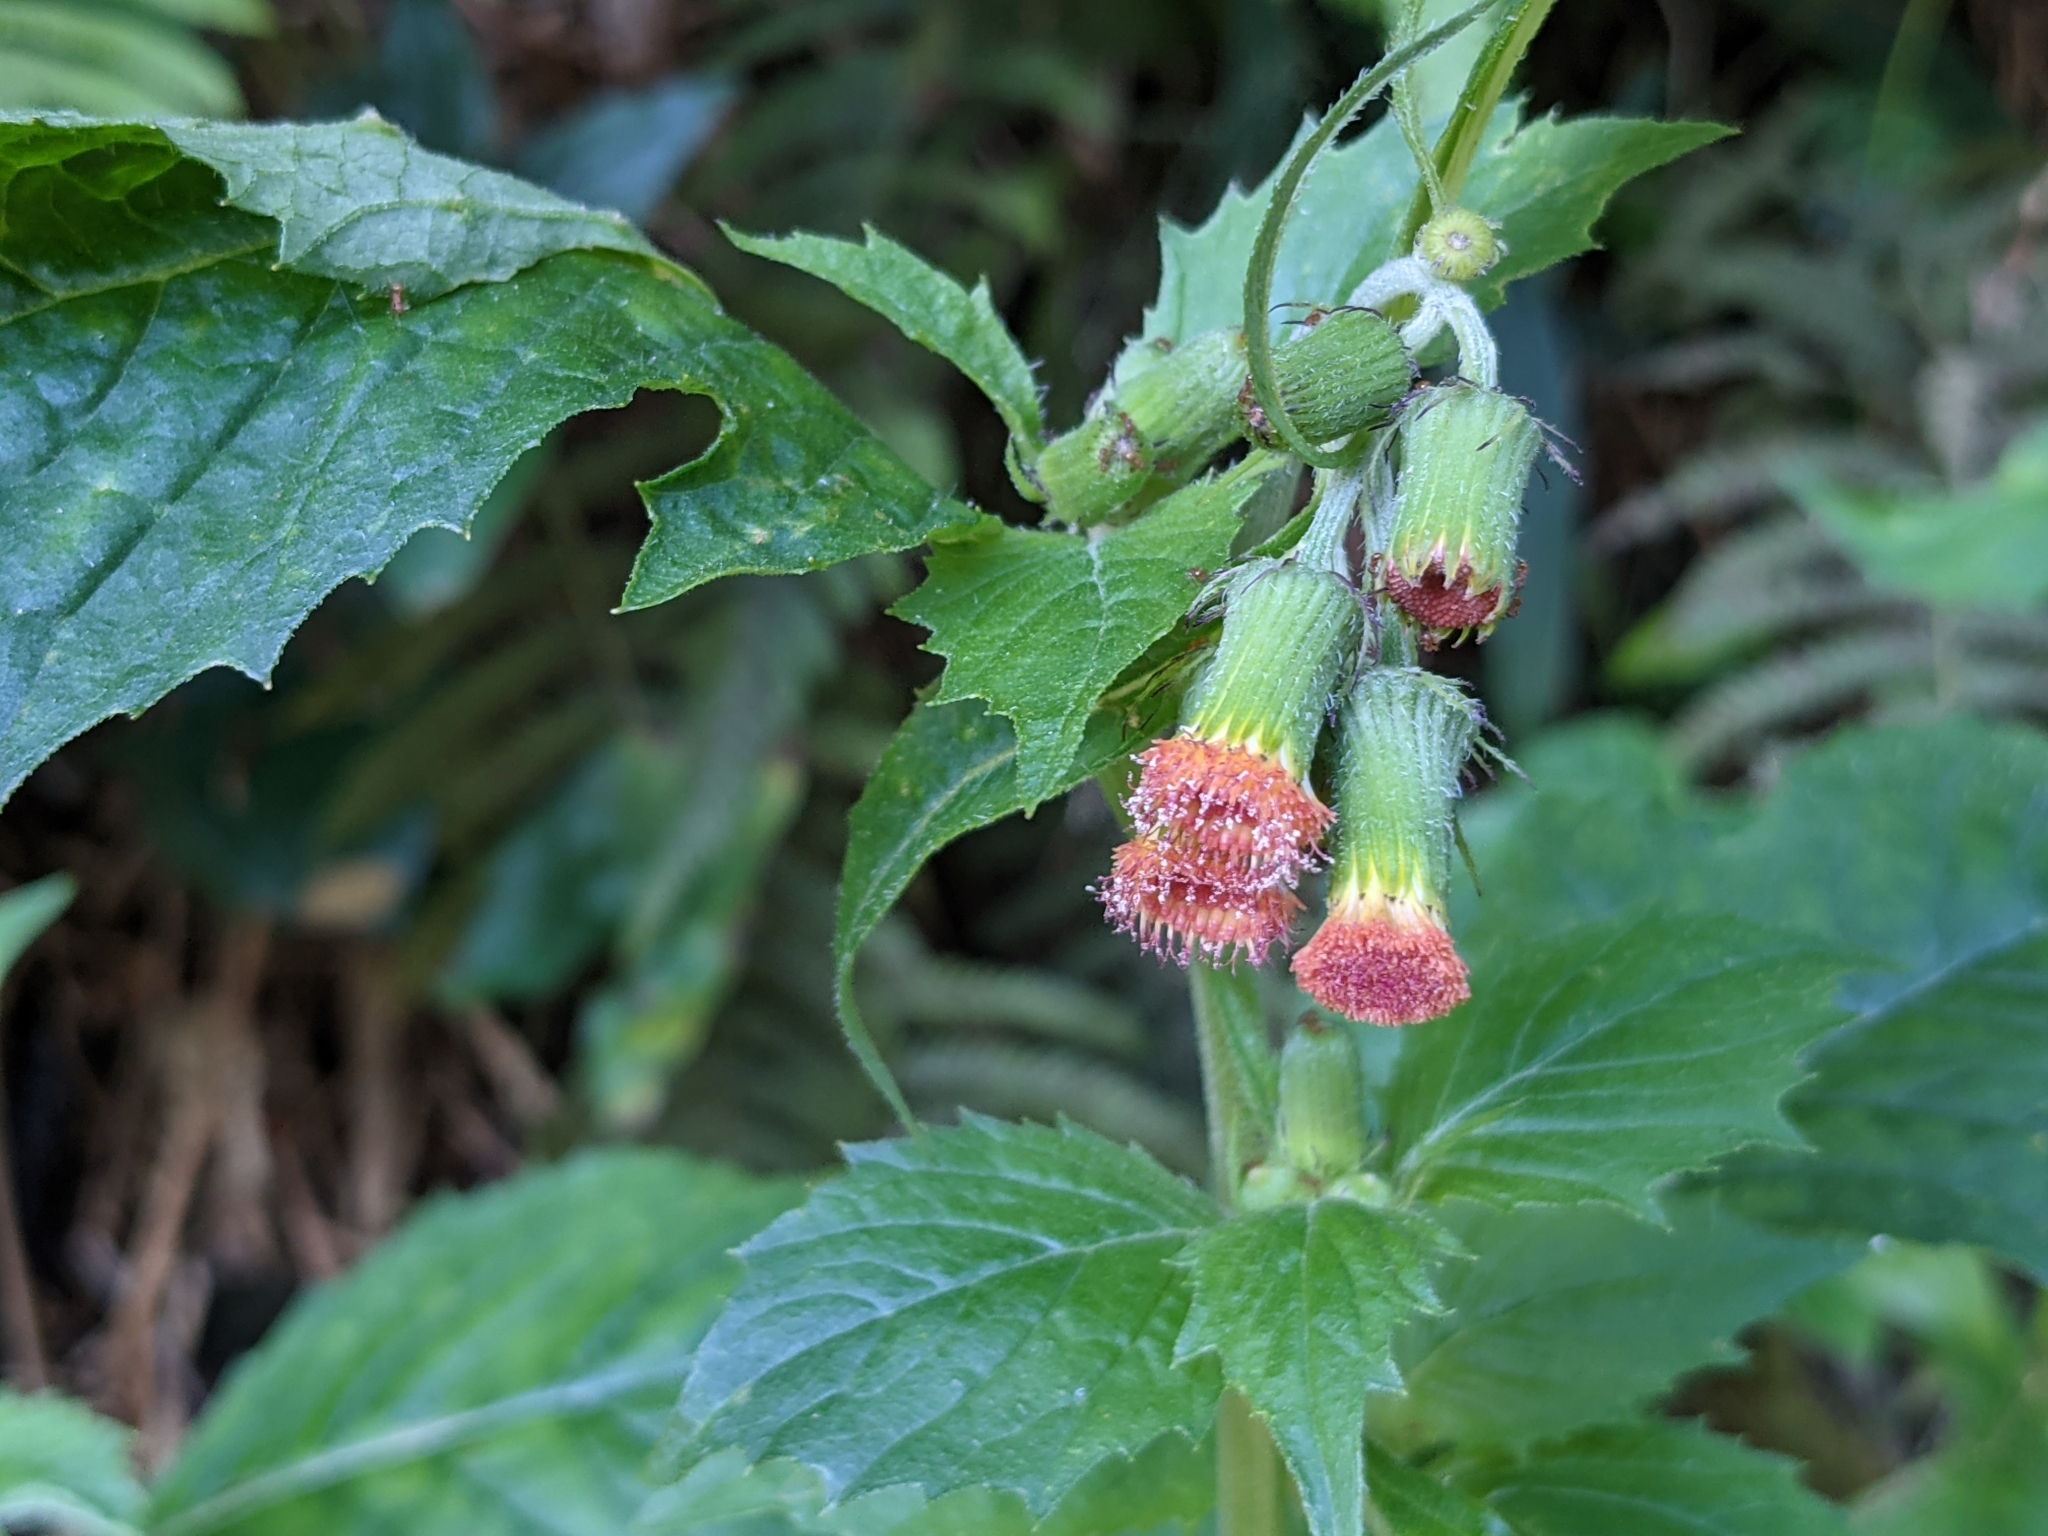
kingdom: Plantae
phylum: Tracheophyta
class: Magnoliopsida
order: Asterales
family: Asteraceae
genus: Crassocephalum
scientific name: Crassocephalum crepidioides
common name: Redflower ragleaf
